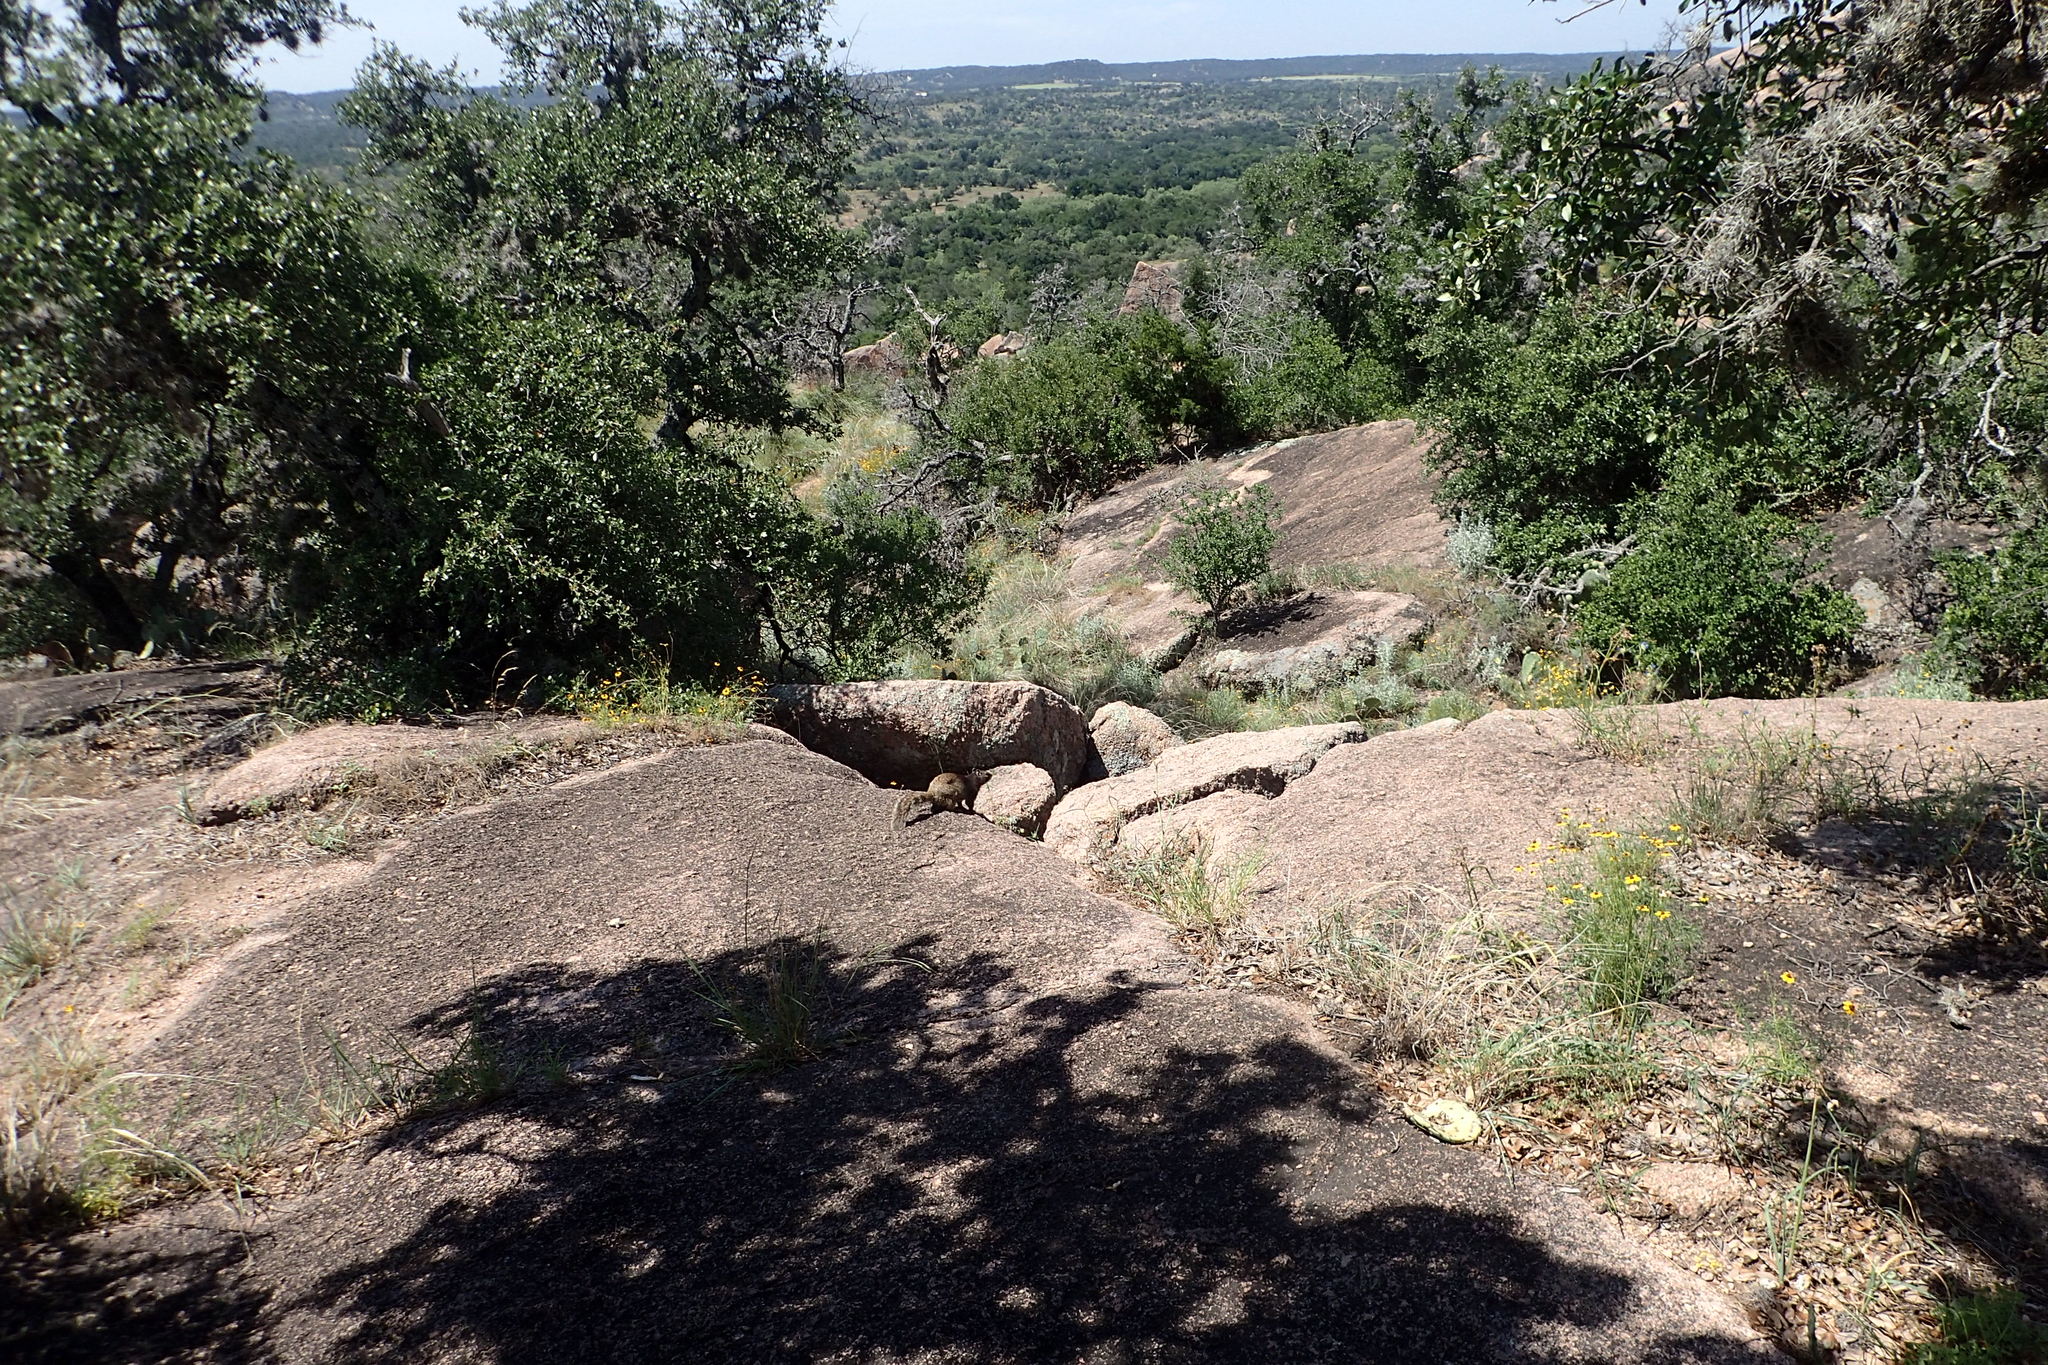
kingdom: Animalia
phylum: Chordata
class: Mammalia
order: Rodentia
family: Sciuridae
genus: Otospermophilus
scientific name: Otospermophilus variegatus
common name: Rock squirrel
